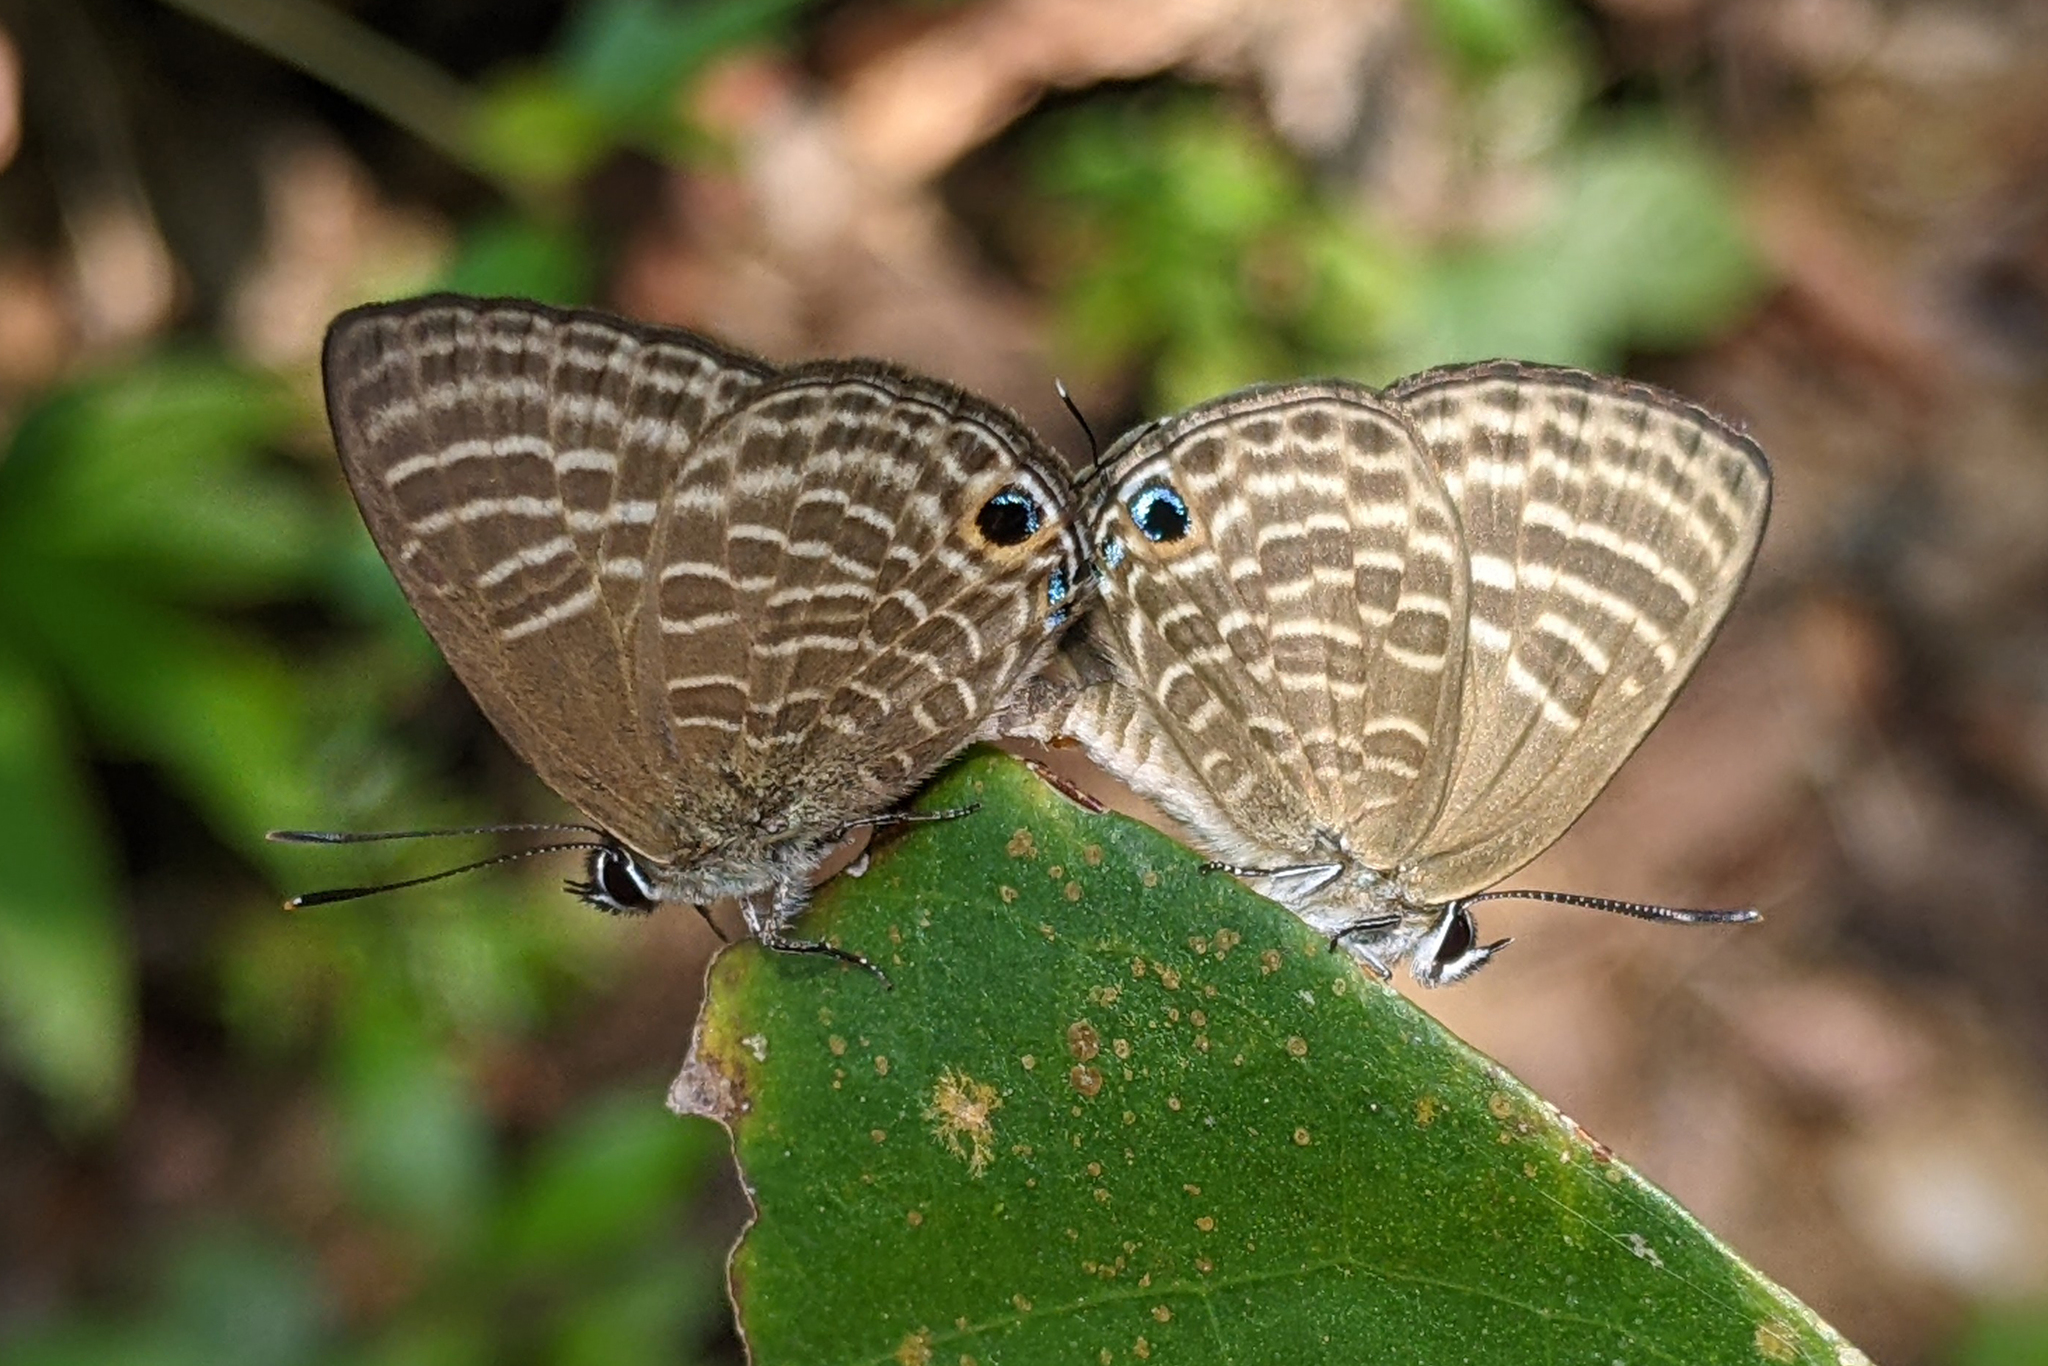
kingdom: Animalia
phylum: Arthropoda
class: Insecta
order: Lepidoptera
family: Lycaenidae
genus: Nacaduba
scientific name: Nacaduba pactolus
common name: Large fourline blue
